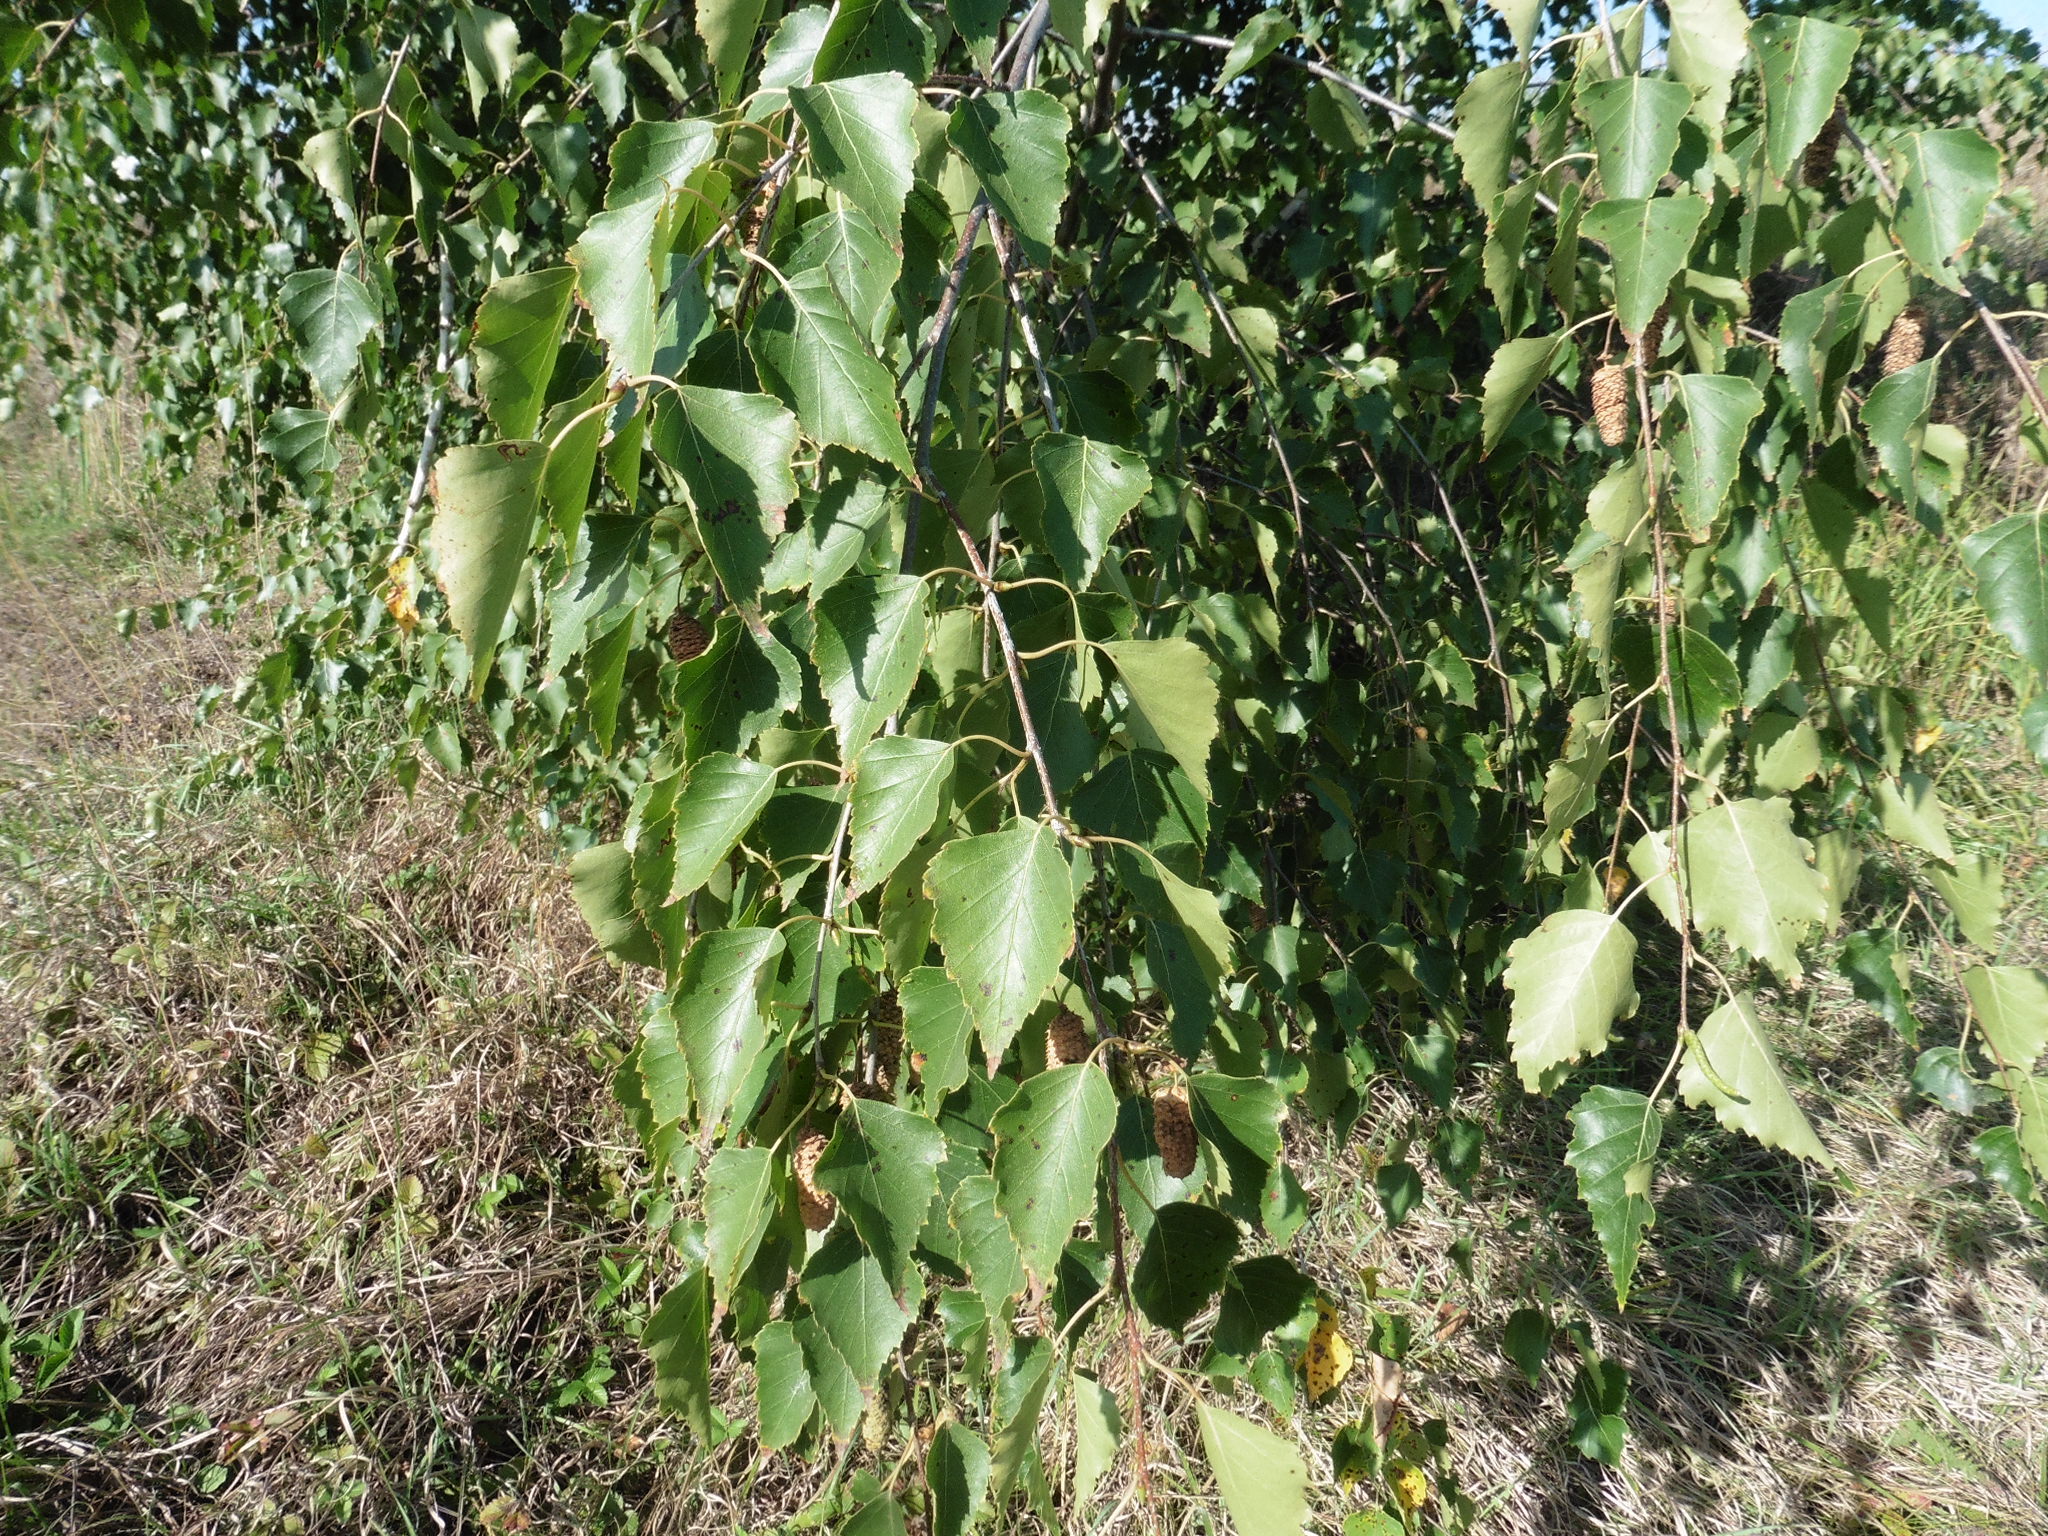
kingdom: Plantae
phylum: Tracheophyta
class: Magnoliopsida
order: Fagales
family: Betulaceae
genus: Betula
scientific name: Betula pendula
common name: Silver birch
